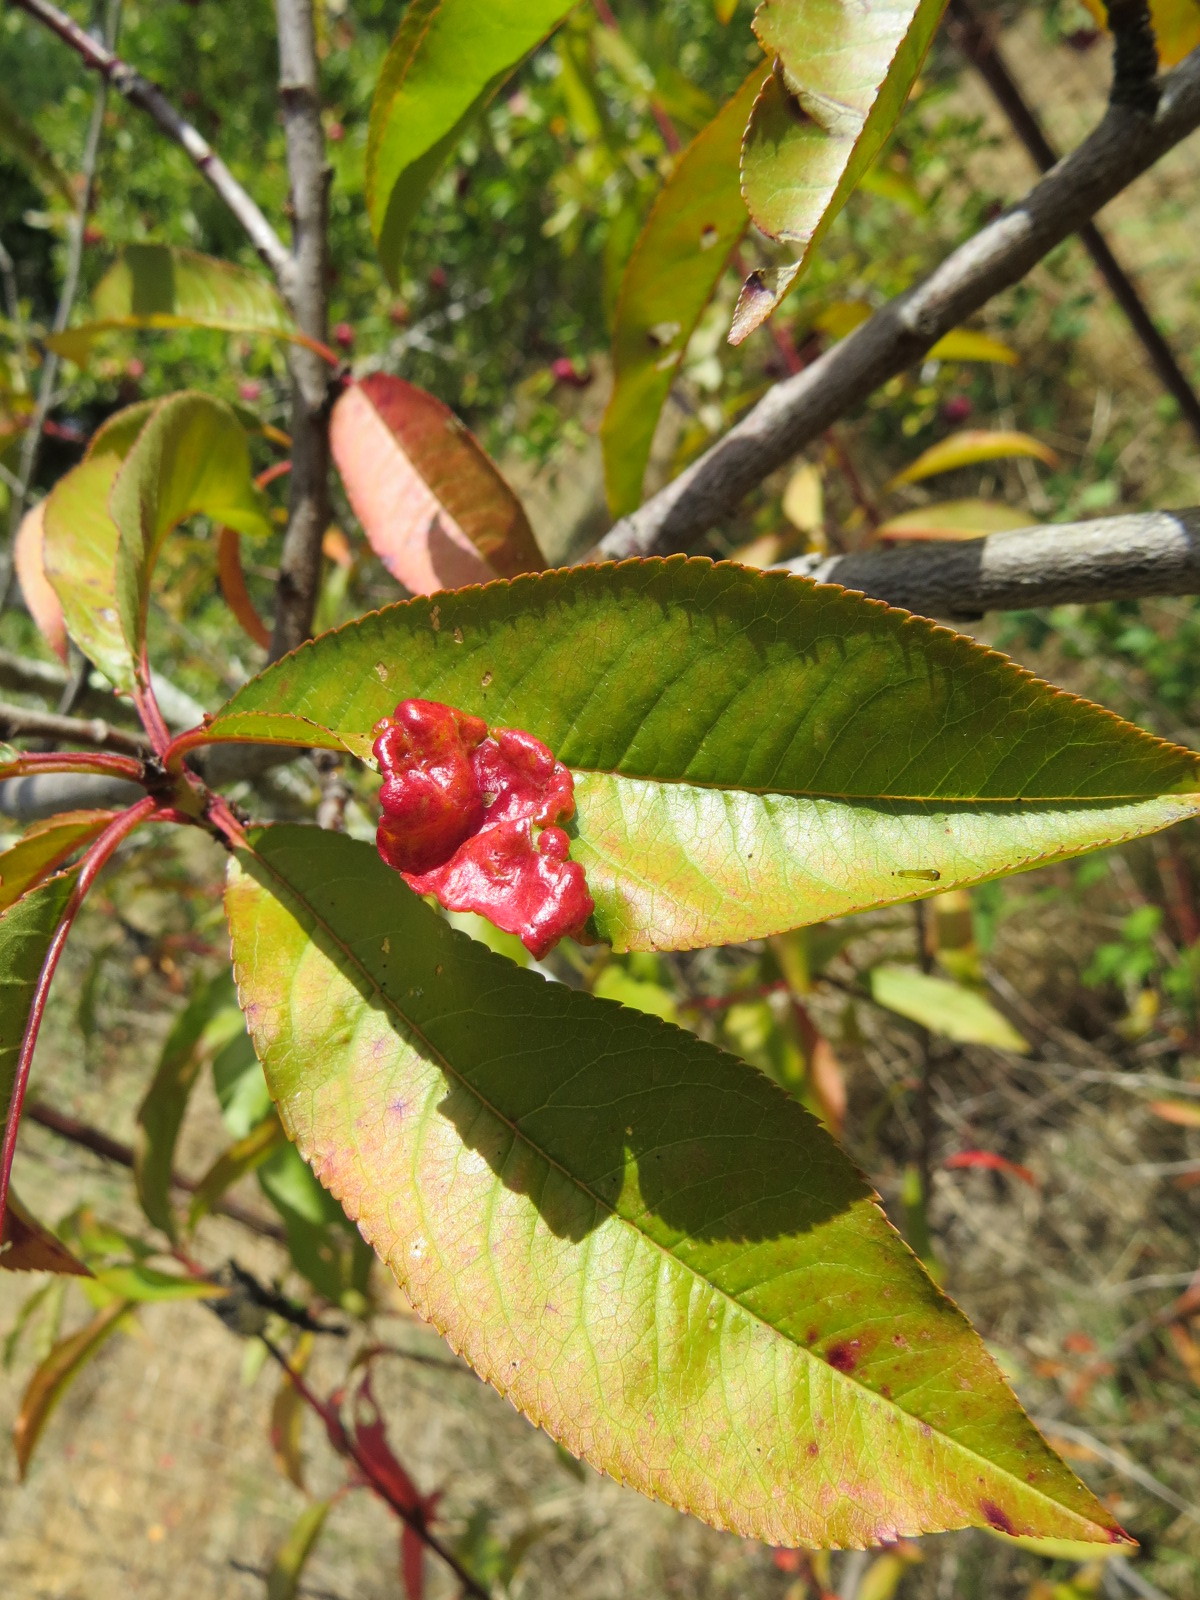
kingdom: Fungi
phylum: Ascomycota
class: Taphrinomycetes
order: Taphrinales
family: Taphrinaceae
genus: Taphrina
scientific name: Taphrina deformans
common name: Peach leaf curl
